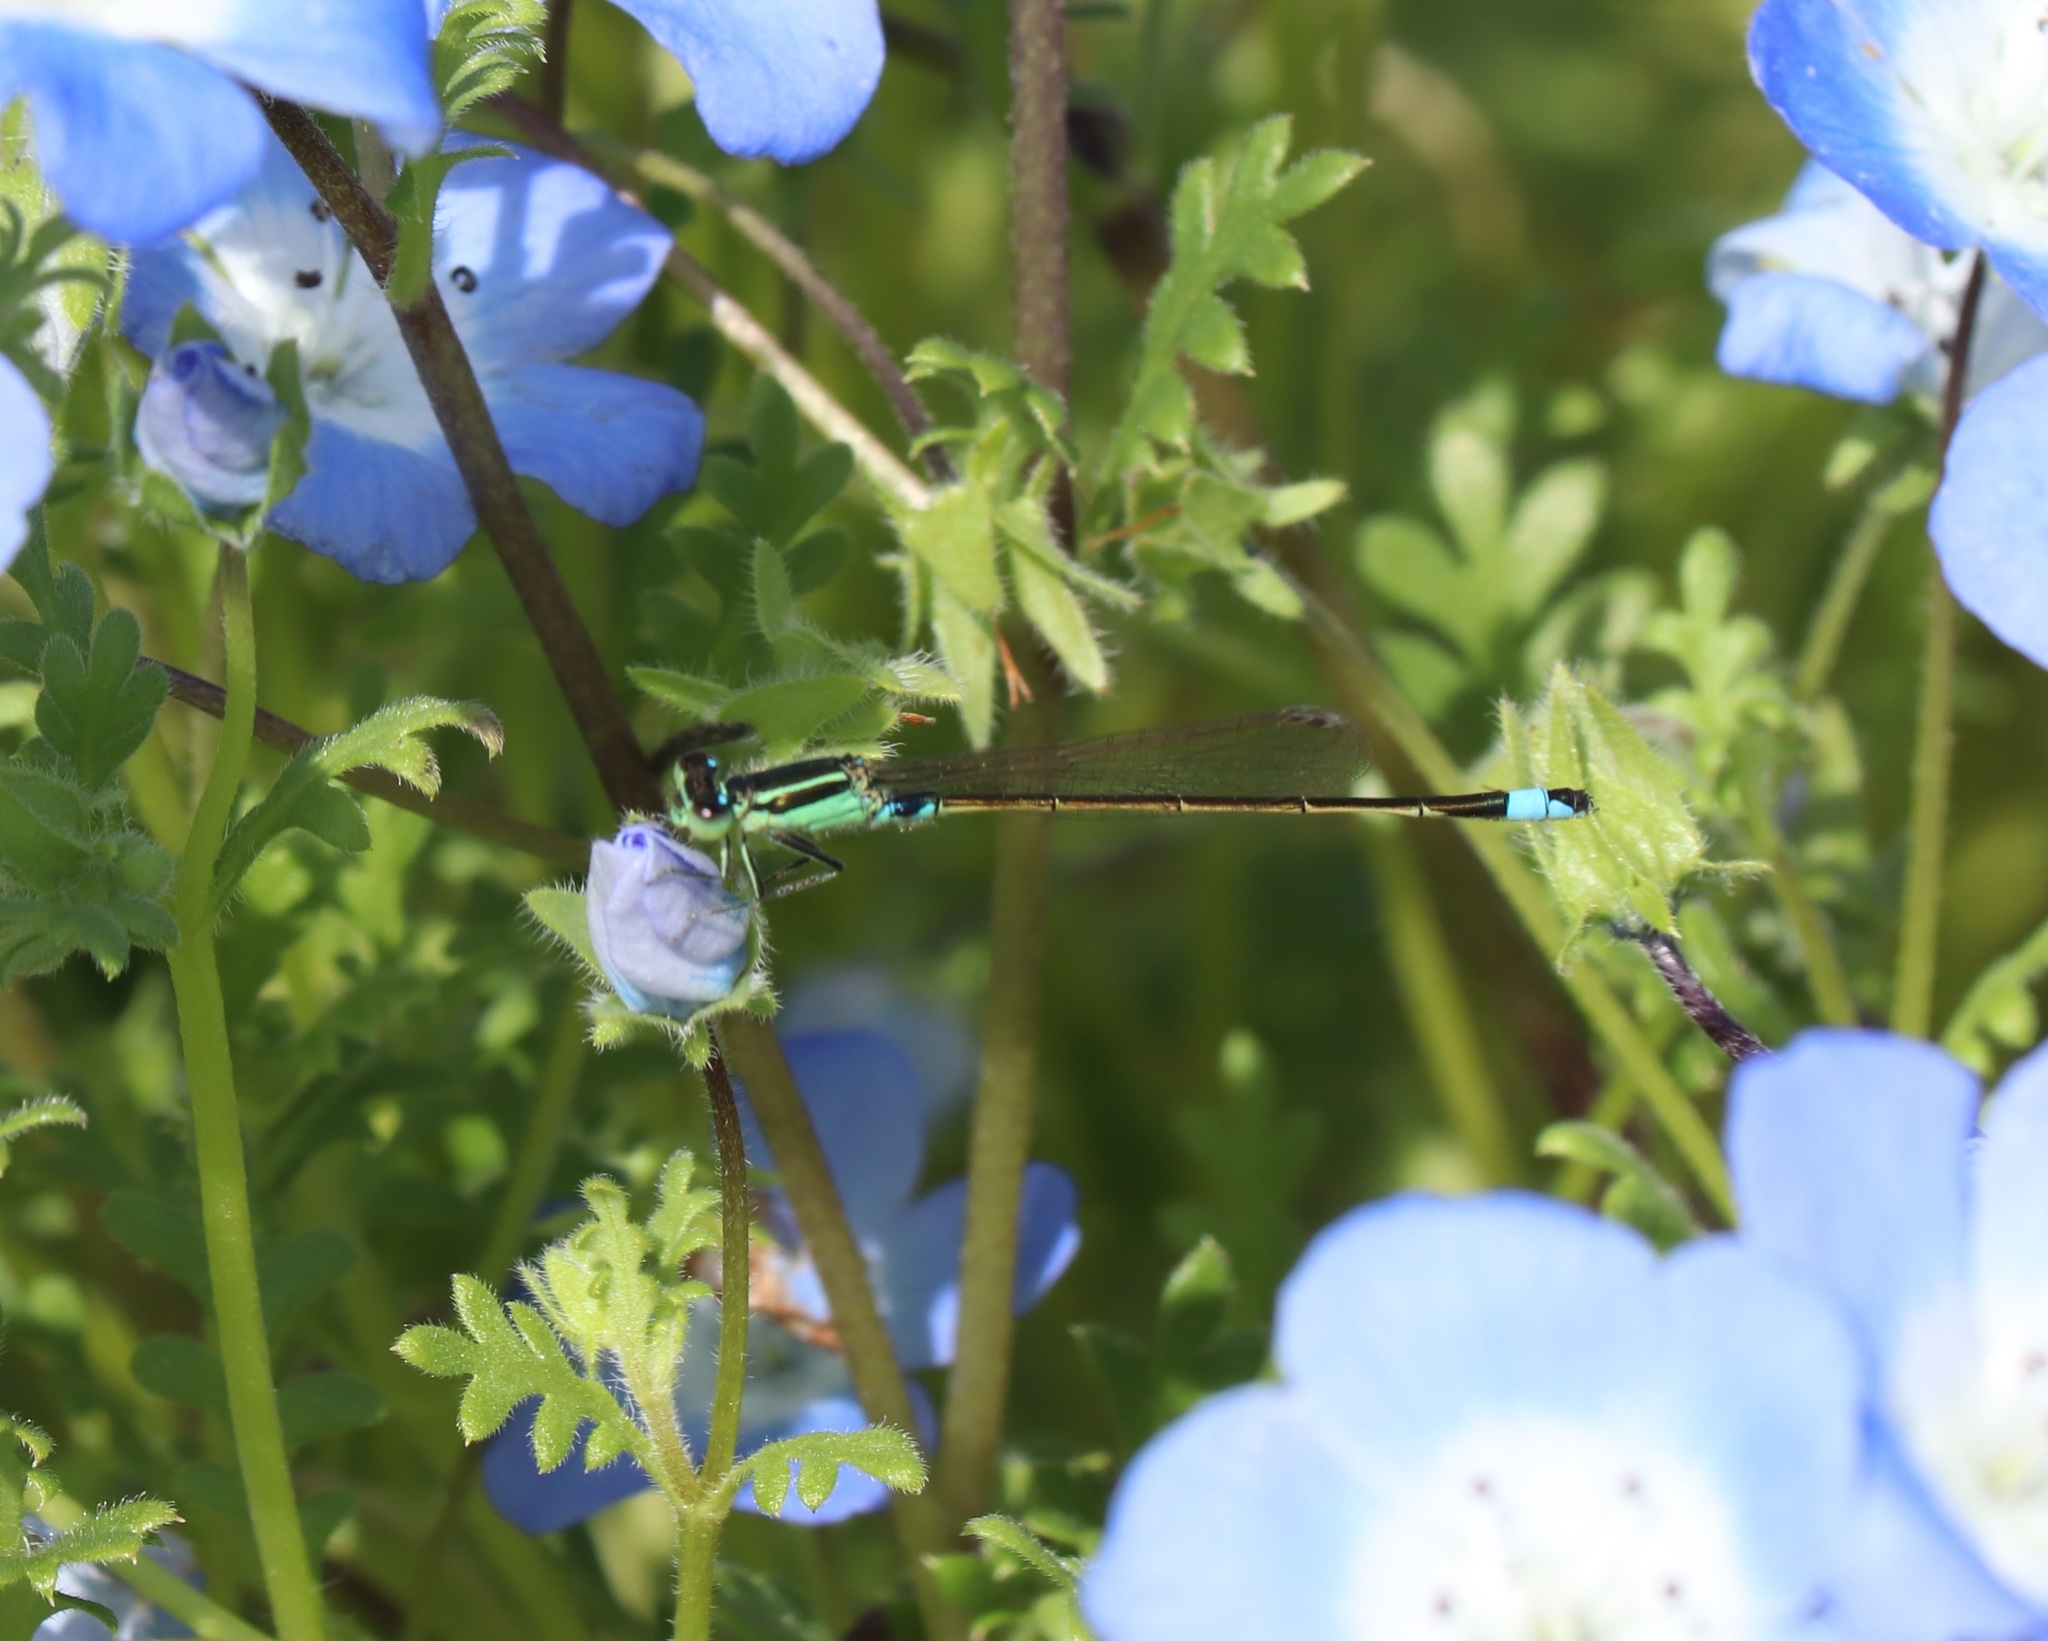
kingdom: Animalia
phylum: Arthropoda
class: Insecta
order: Odonata
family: Coenagrionidae
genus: Ischnura
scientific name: Ischnura senegalensis
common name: Tropical bluetail
